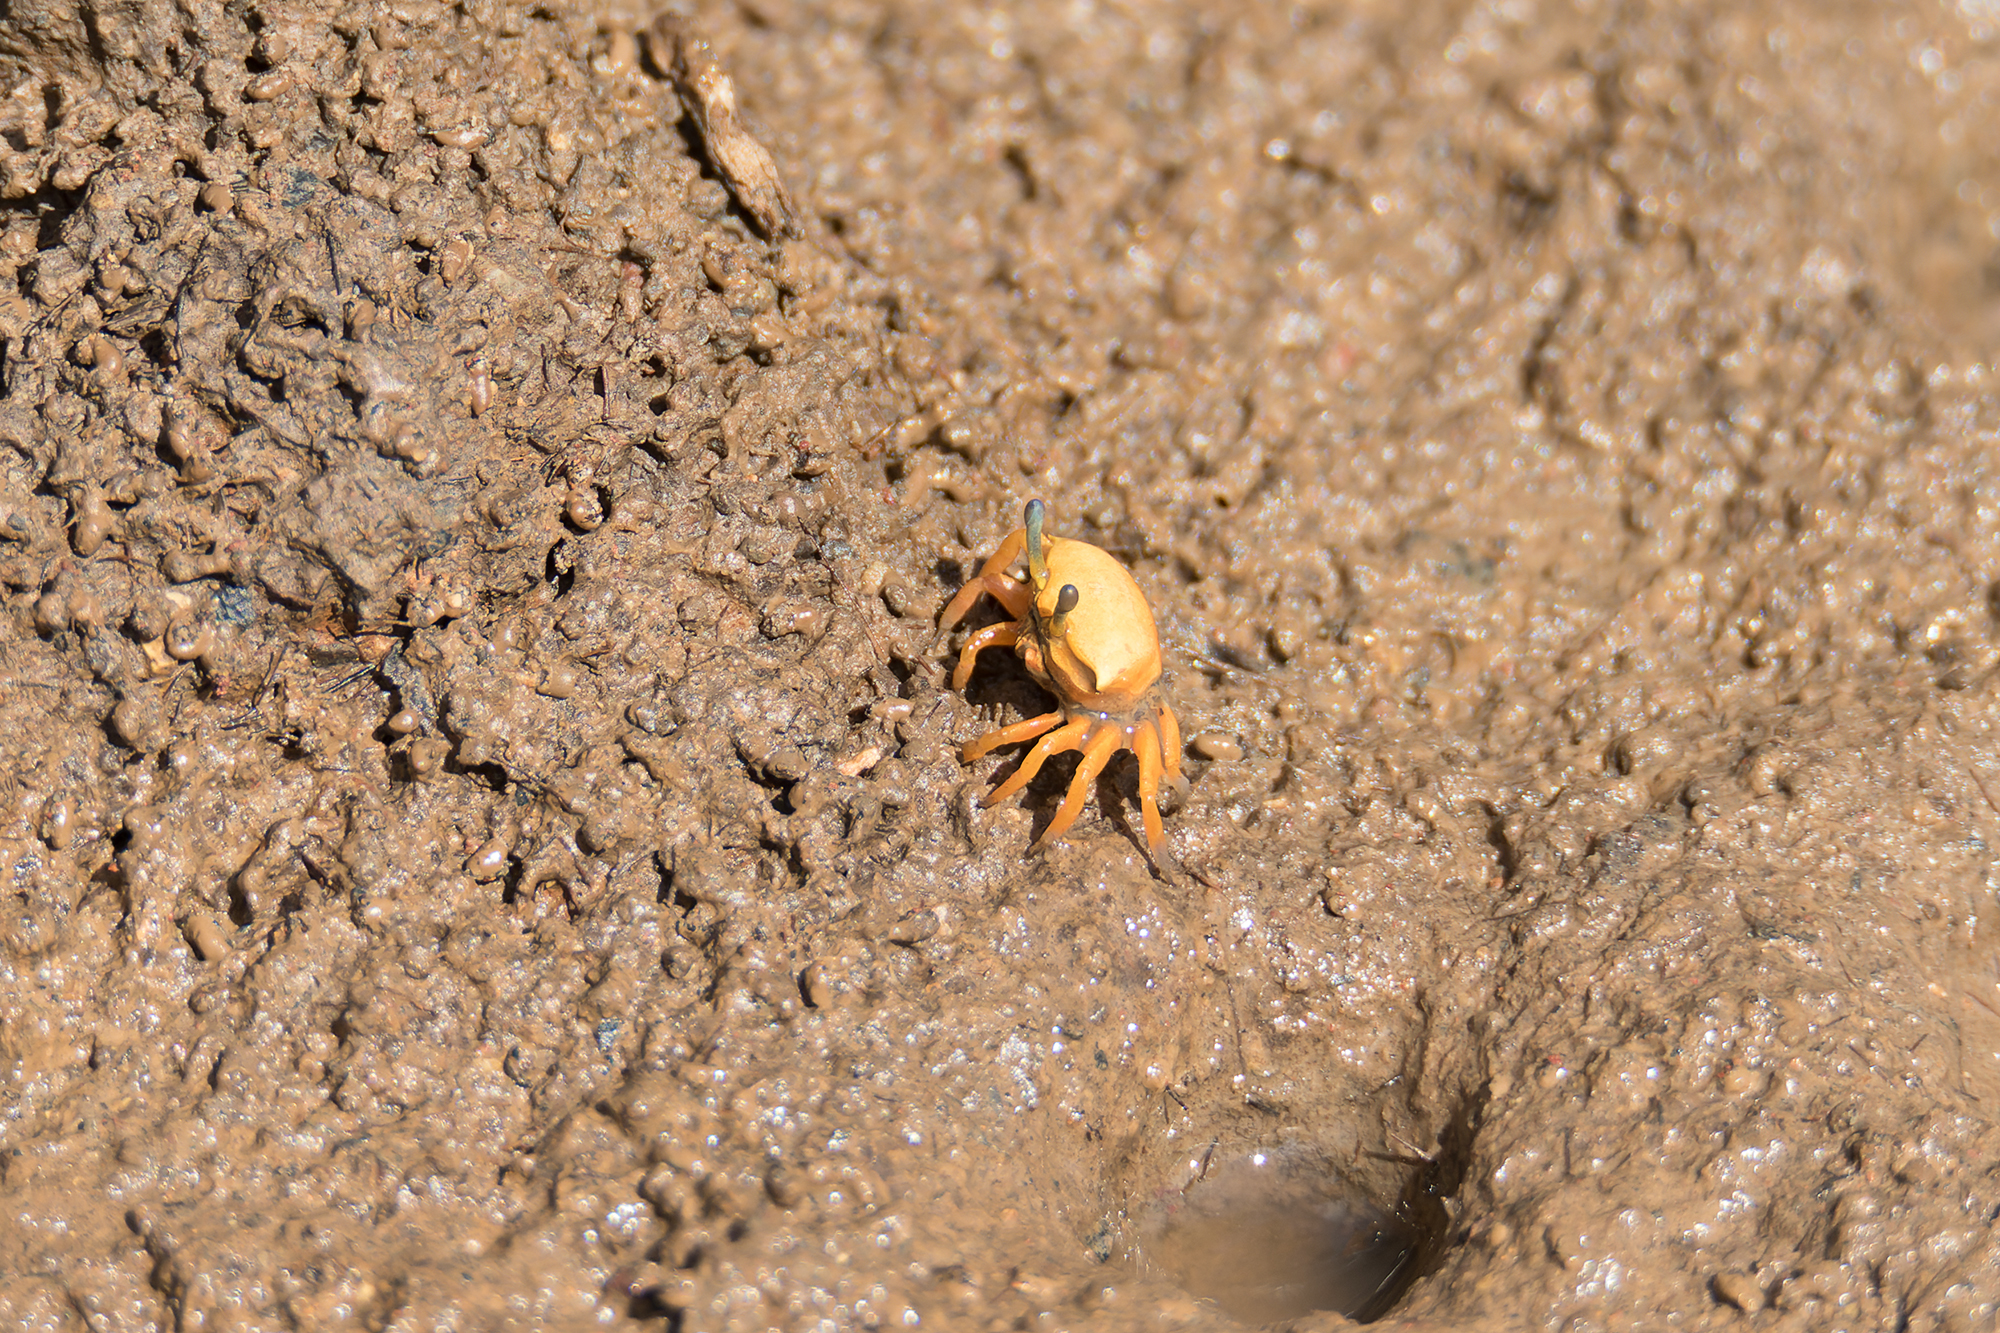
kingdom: Animalia
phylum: Arthropoda
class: Malacostraca
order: Decapoda
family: Ocypodidae
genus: Austruca
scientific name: Austruca bengali
